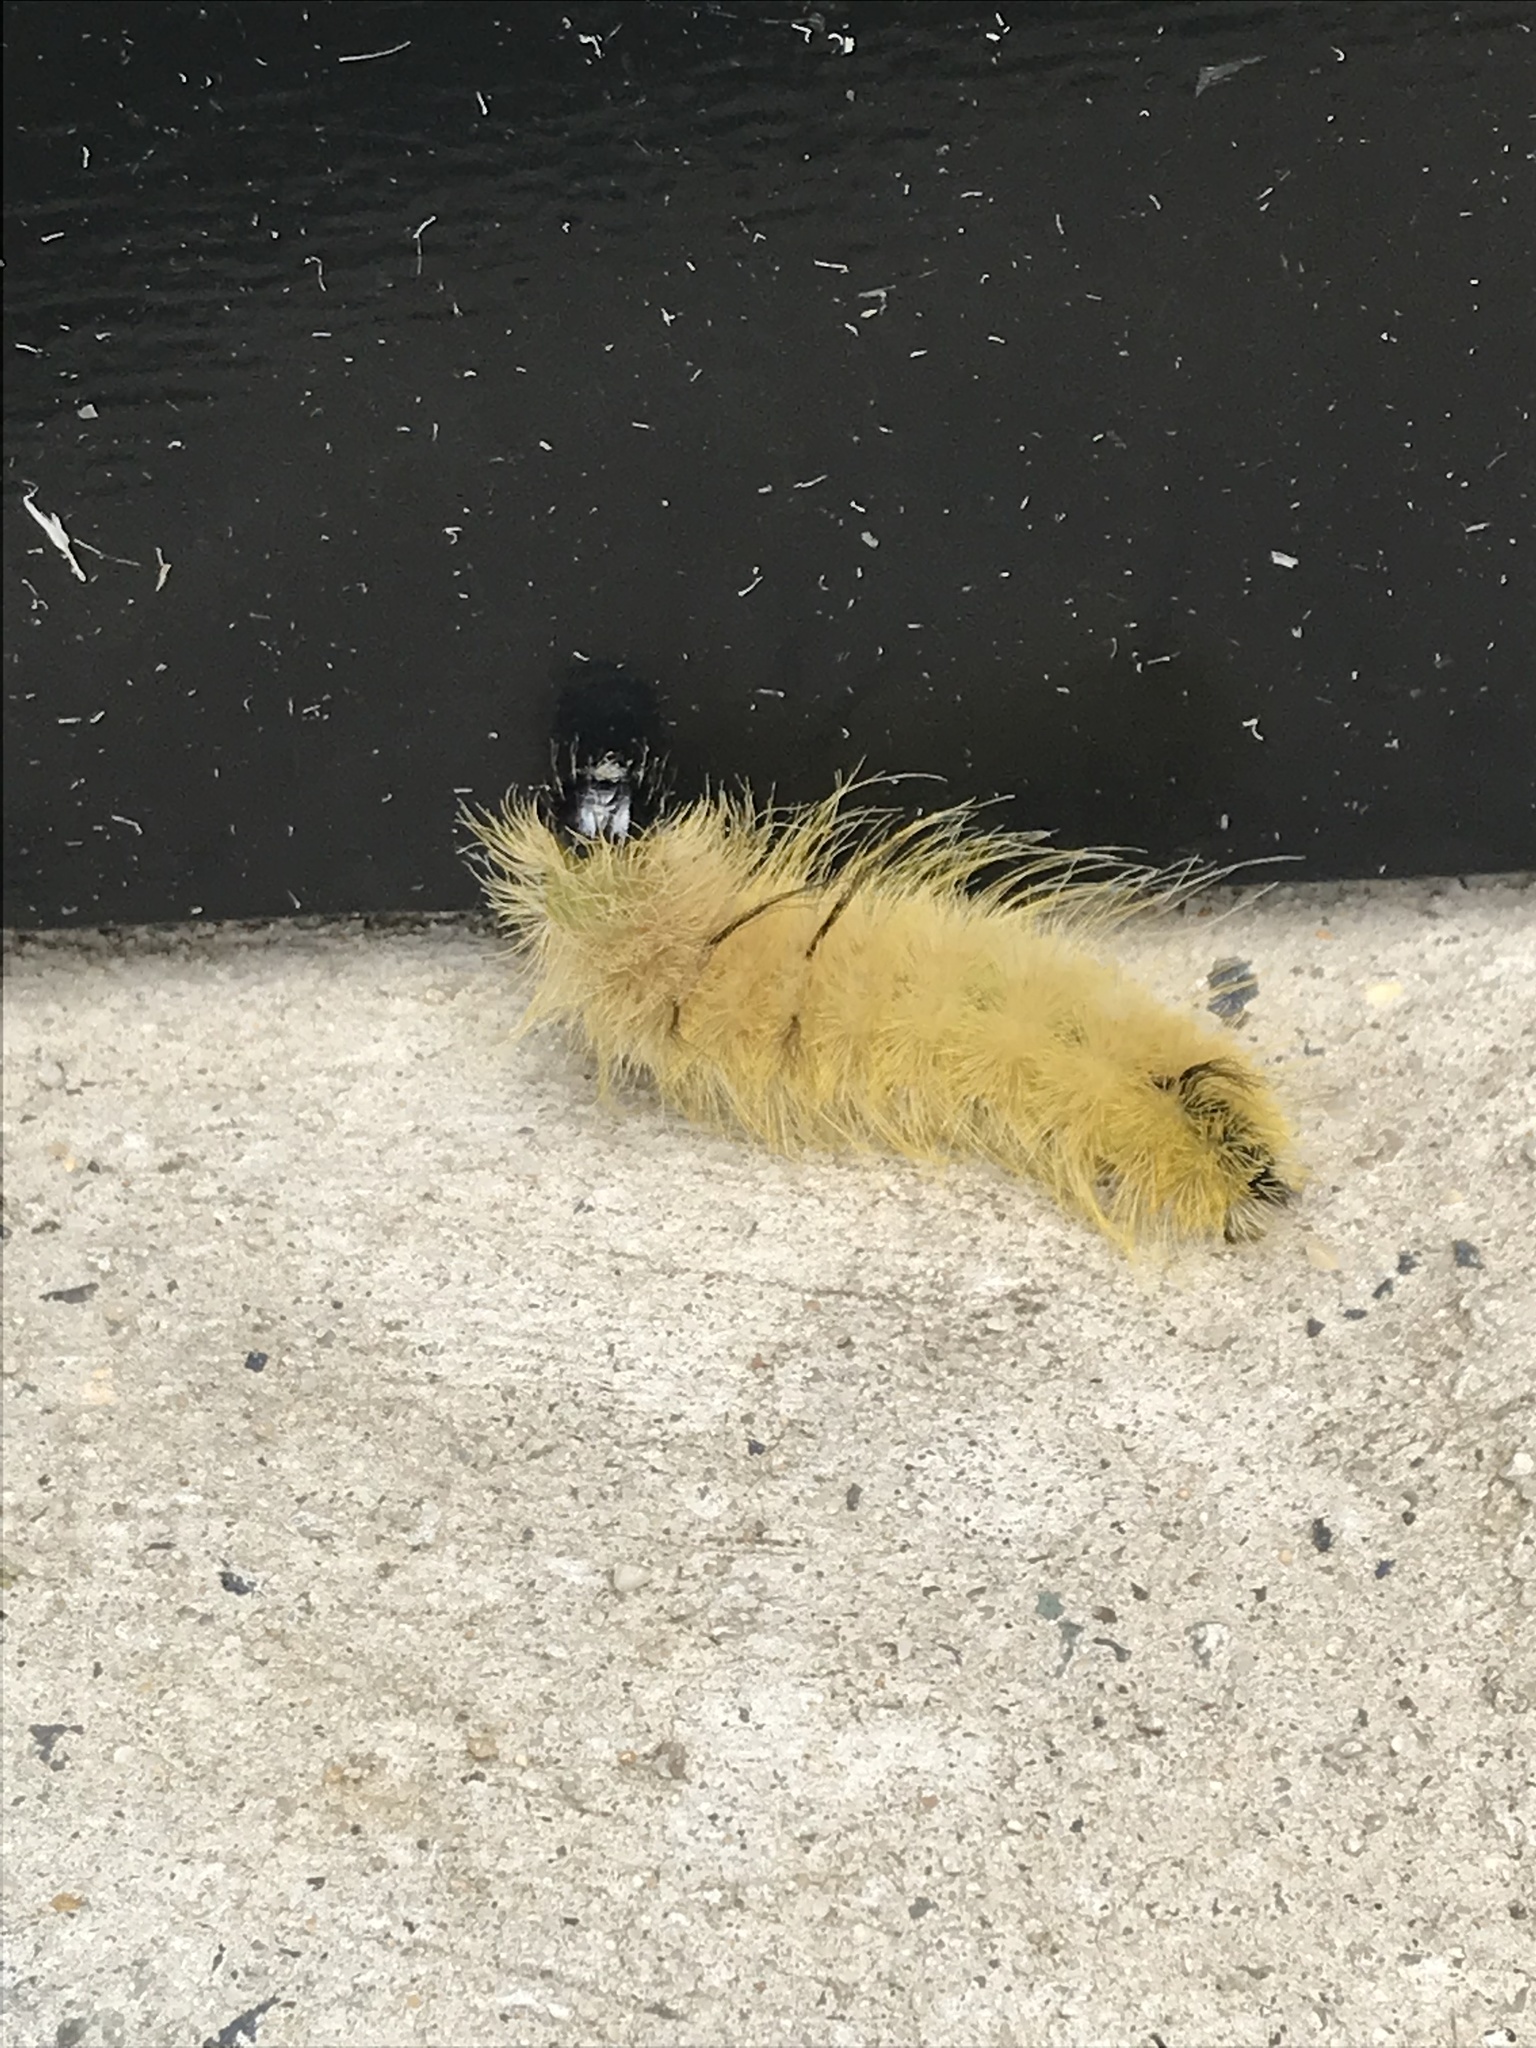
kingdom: Animalia
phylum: Arthropoda
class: Insecta
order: Lepidoptera
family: Noctuidae
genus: Acronicta
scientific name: Acronicta americana
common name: American dagger
